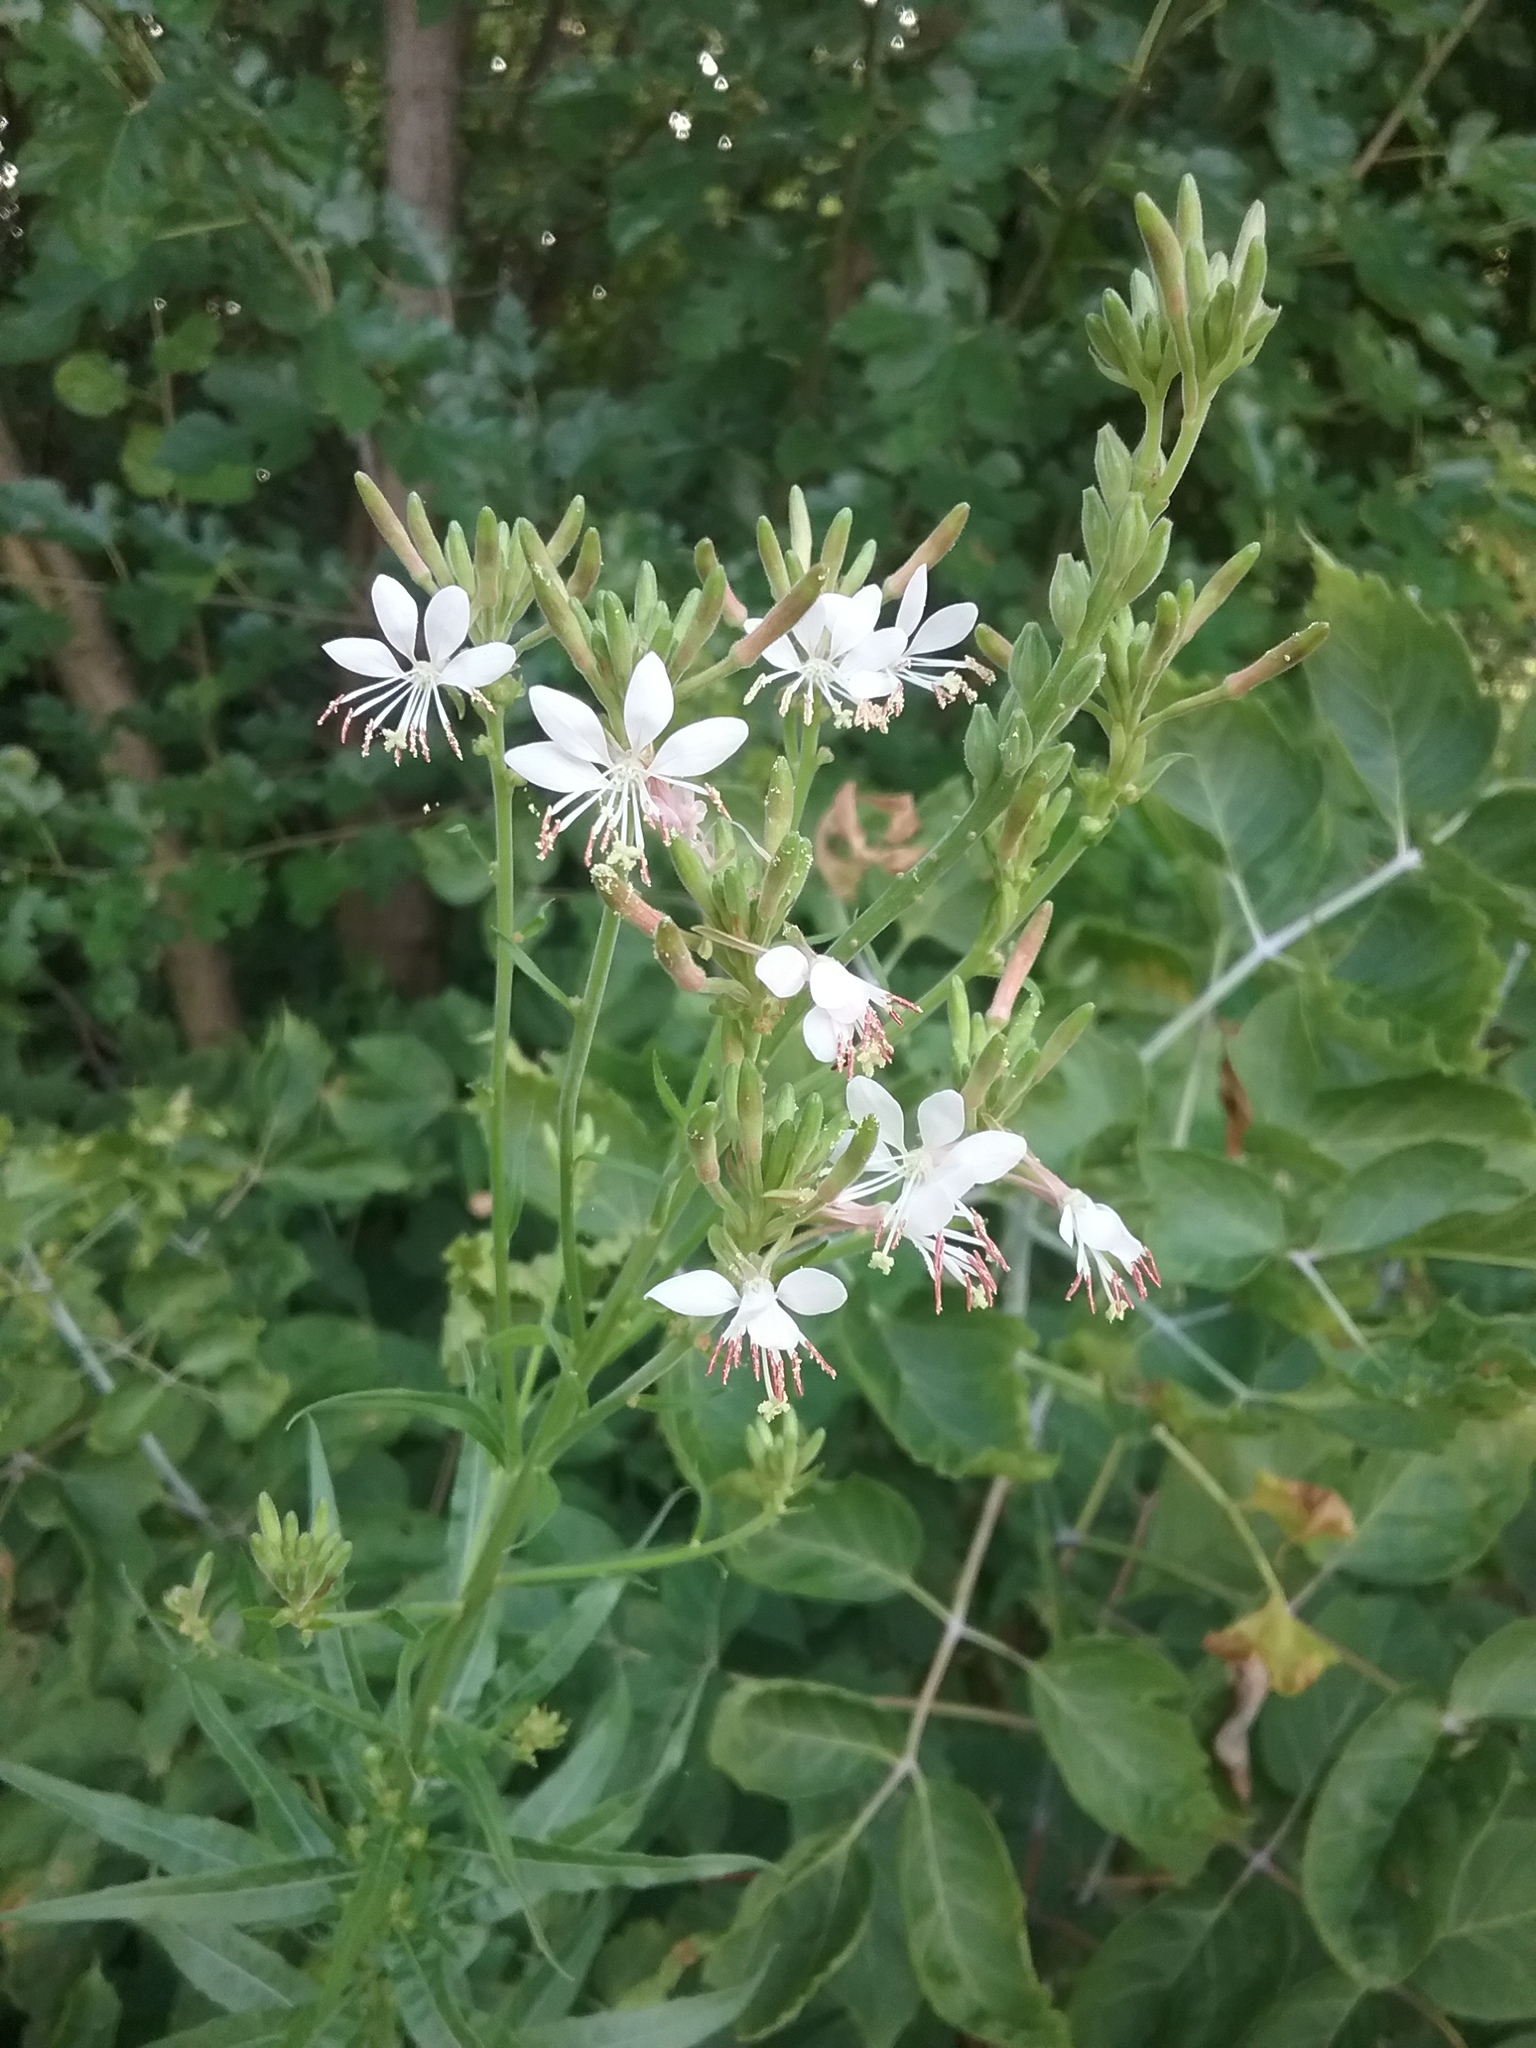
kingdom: Plantae
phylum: Tracheophyta
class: Magnoliopsida
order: Myrtales
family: Onagraceae
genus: Oenothera
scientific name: Oenothera gaura
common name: Biennial beeblossom
